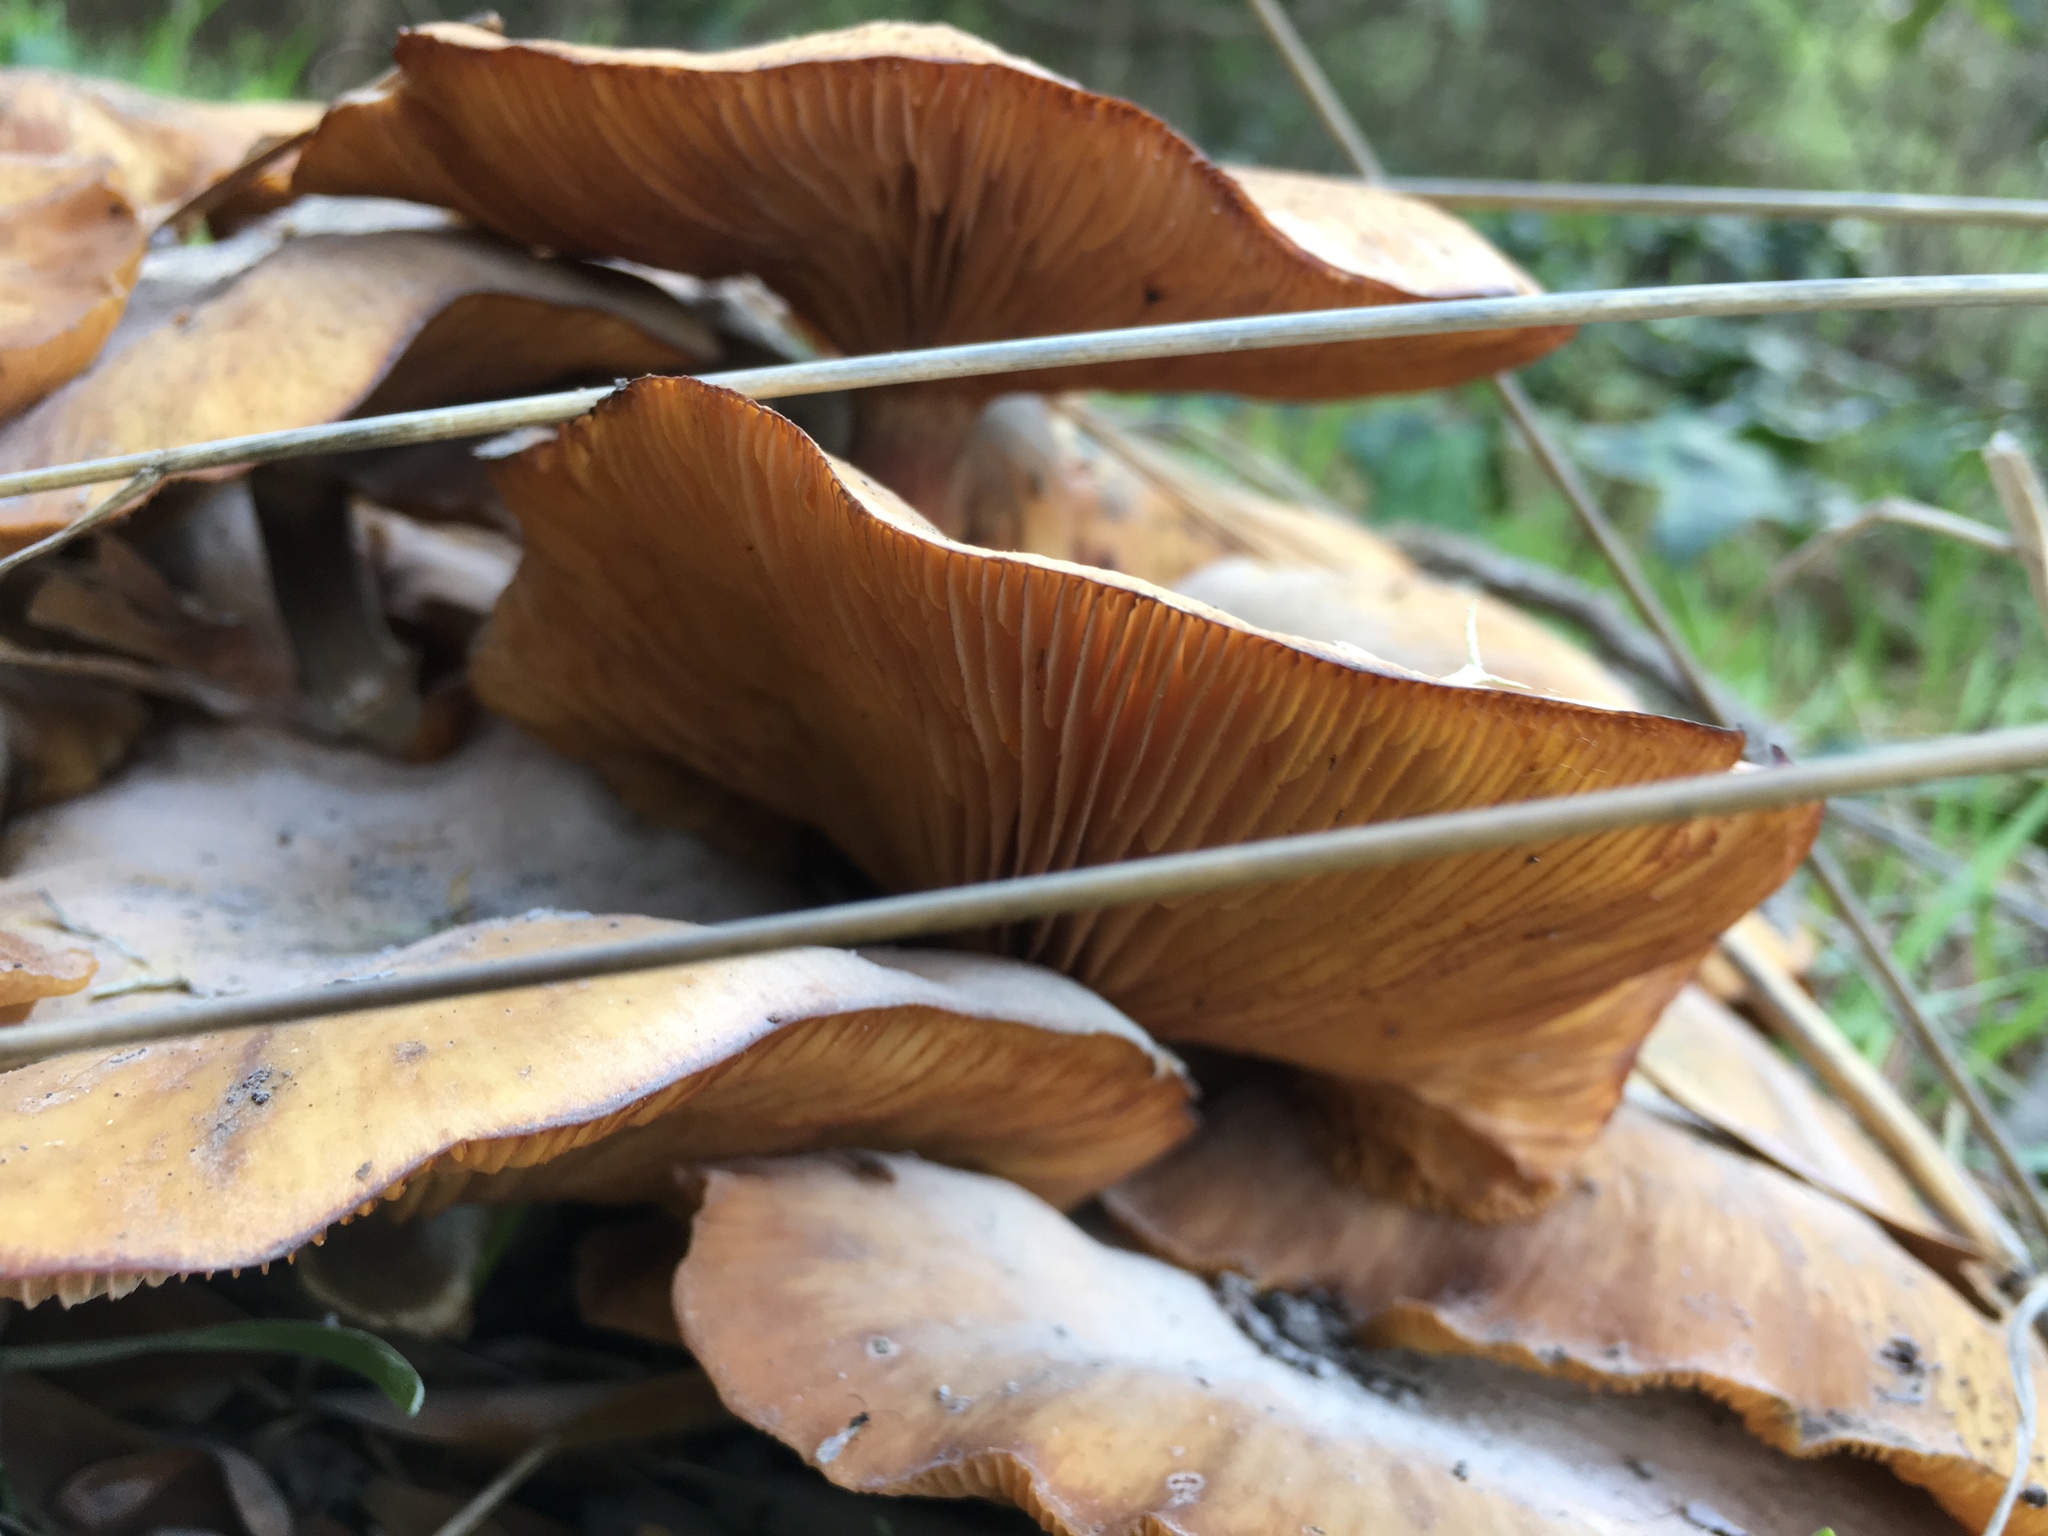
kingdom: Fungi
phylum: Basidiomycota
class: Agaricomycetes
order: Agaricales
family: Physalacriaceae
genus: Armillaria
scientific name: Armillaria mellea
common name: Honey fungus
